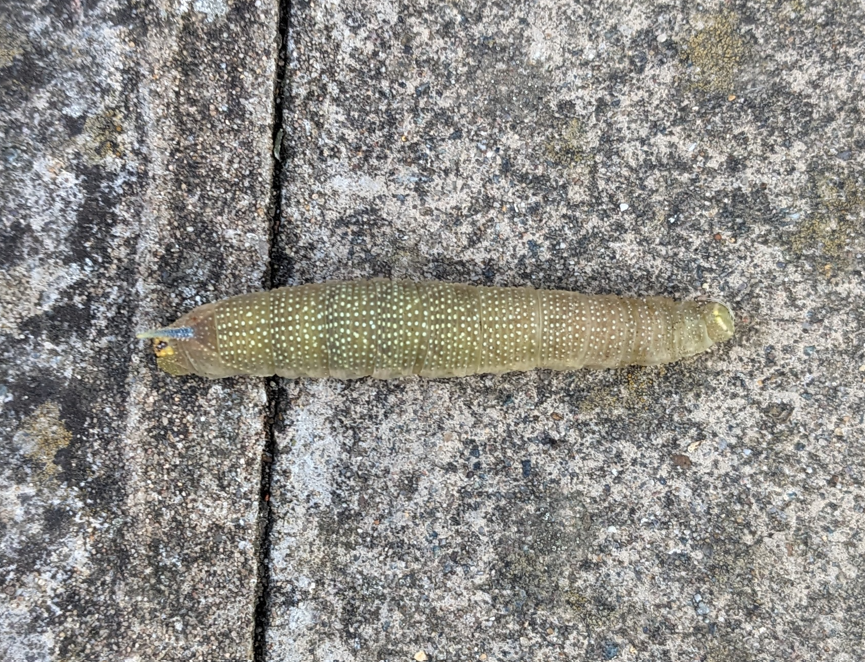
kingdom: Animalia
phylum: Arthropoda
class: Insecta
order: Lepidoptera
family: Sphingidae
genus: Mimas
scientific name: Mimas tiliae
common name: Lime hawk-moth
